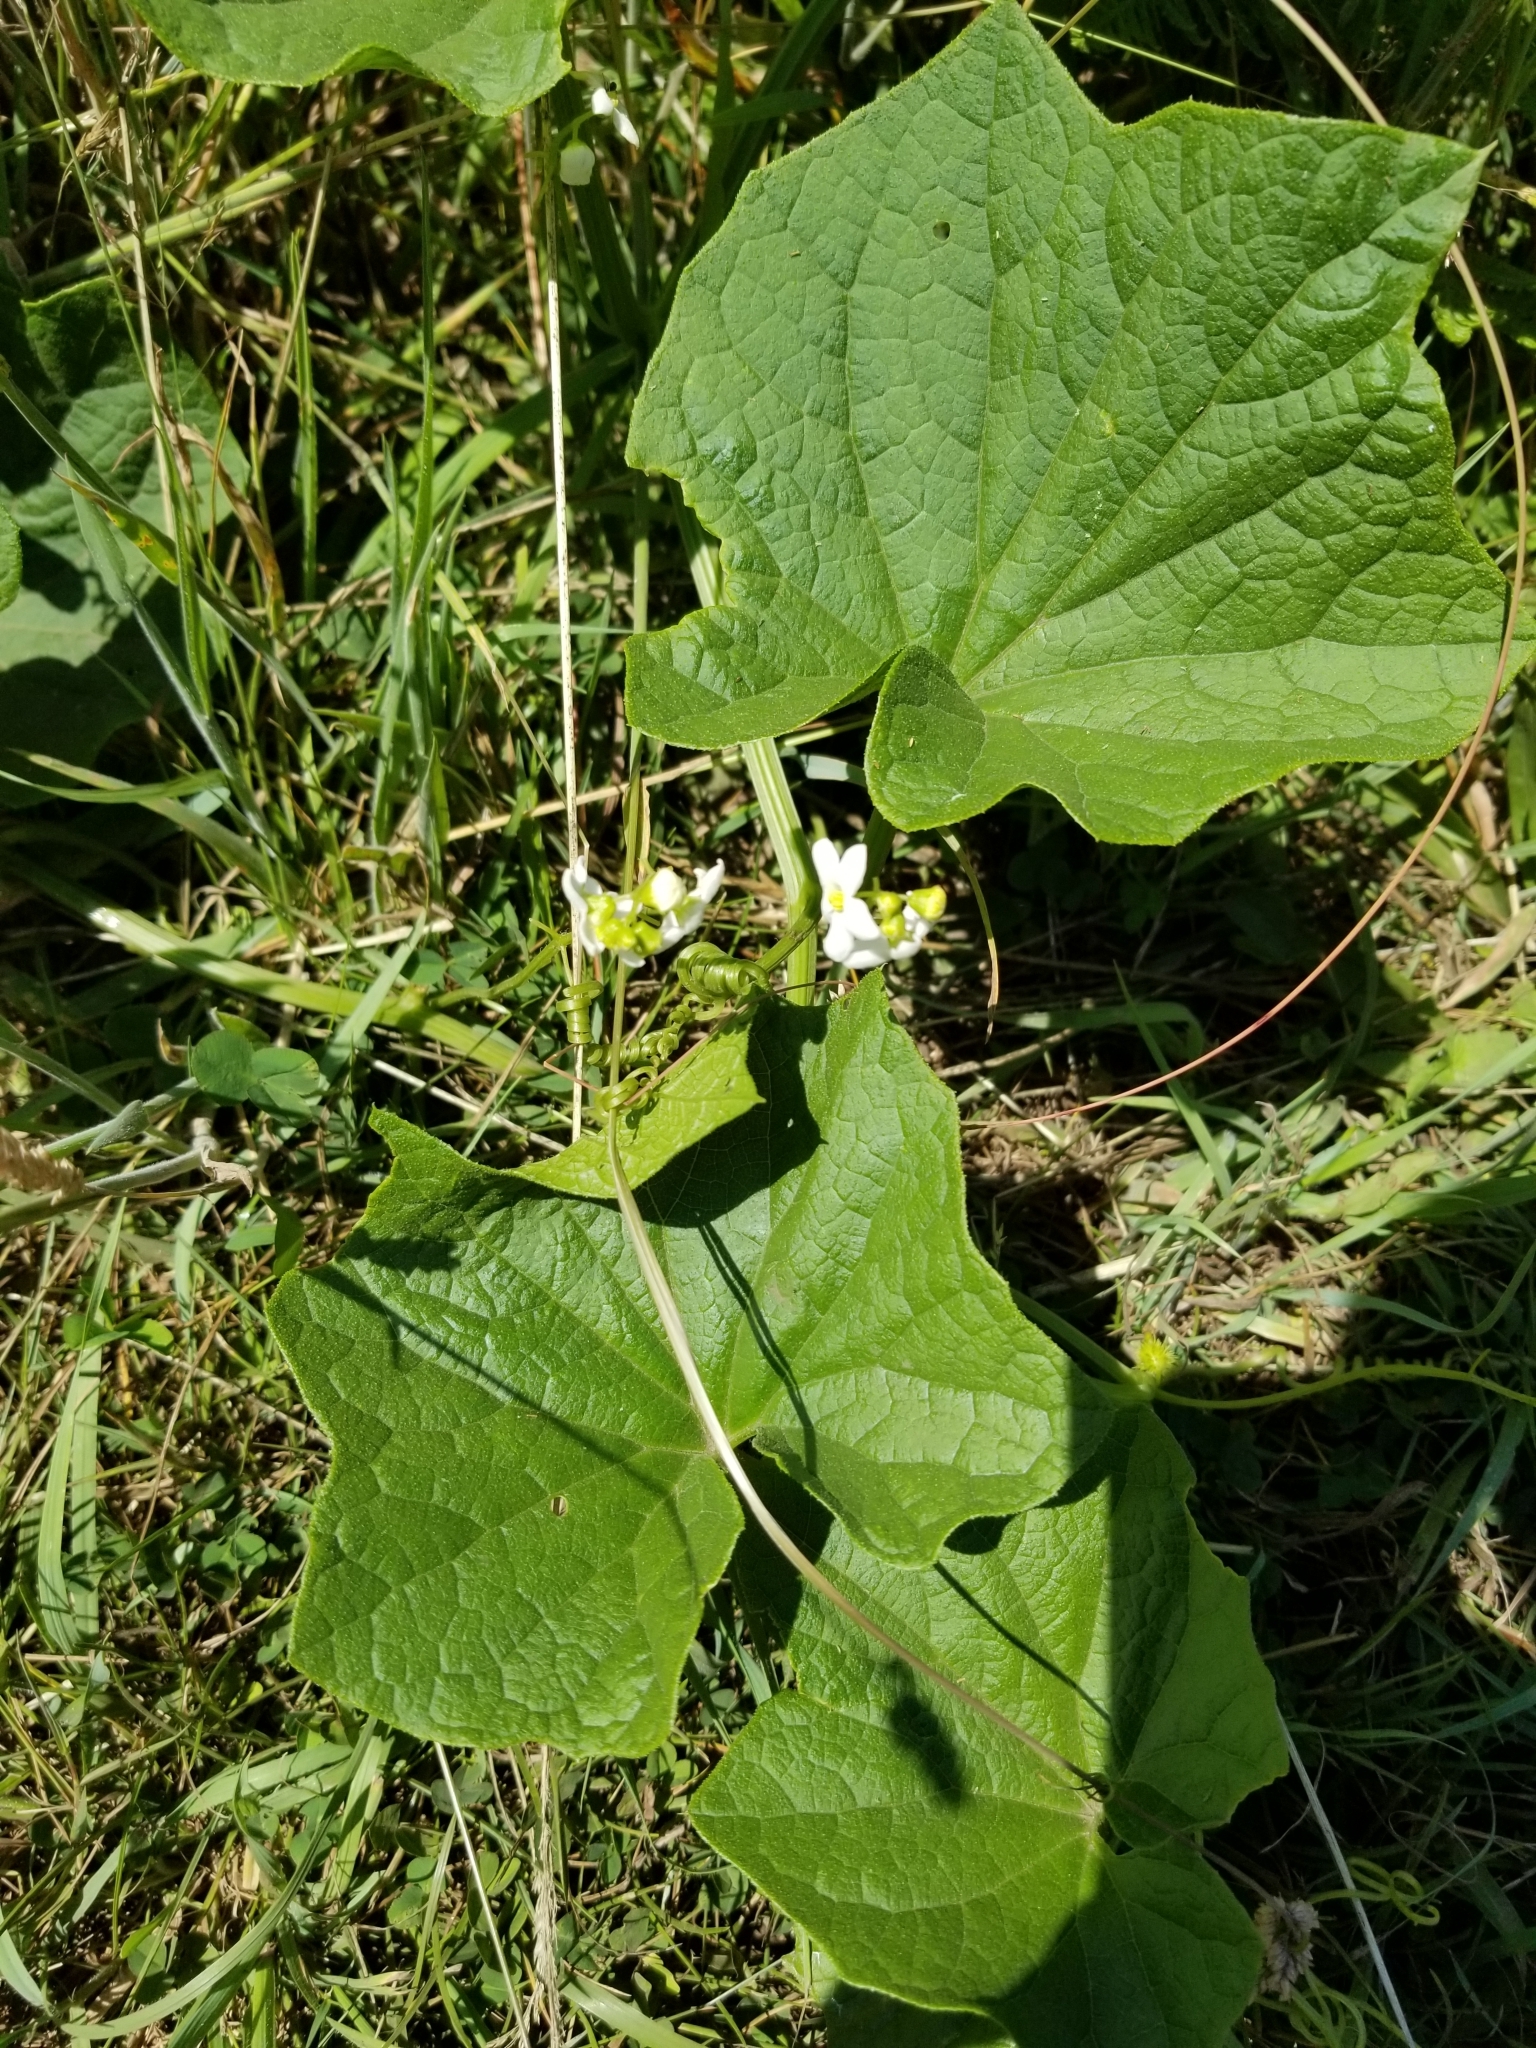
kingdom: Plantae
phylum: Tracheophyta
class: Magnoliopsida
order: Cucurbitales
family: Cucurbitaceae
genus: Marah
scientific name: Marah oregana
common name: Coastal manroot
